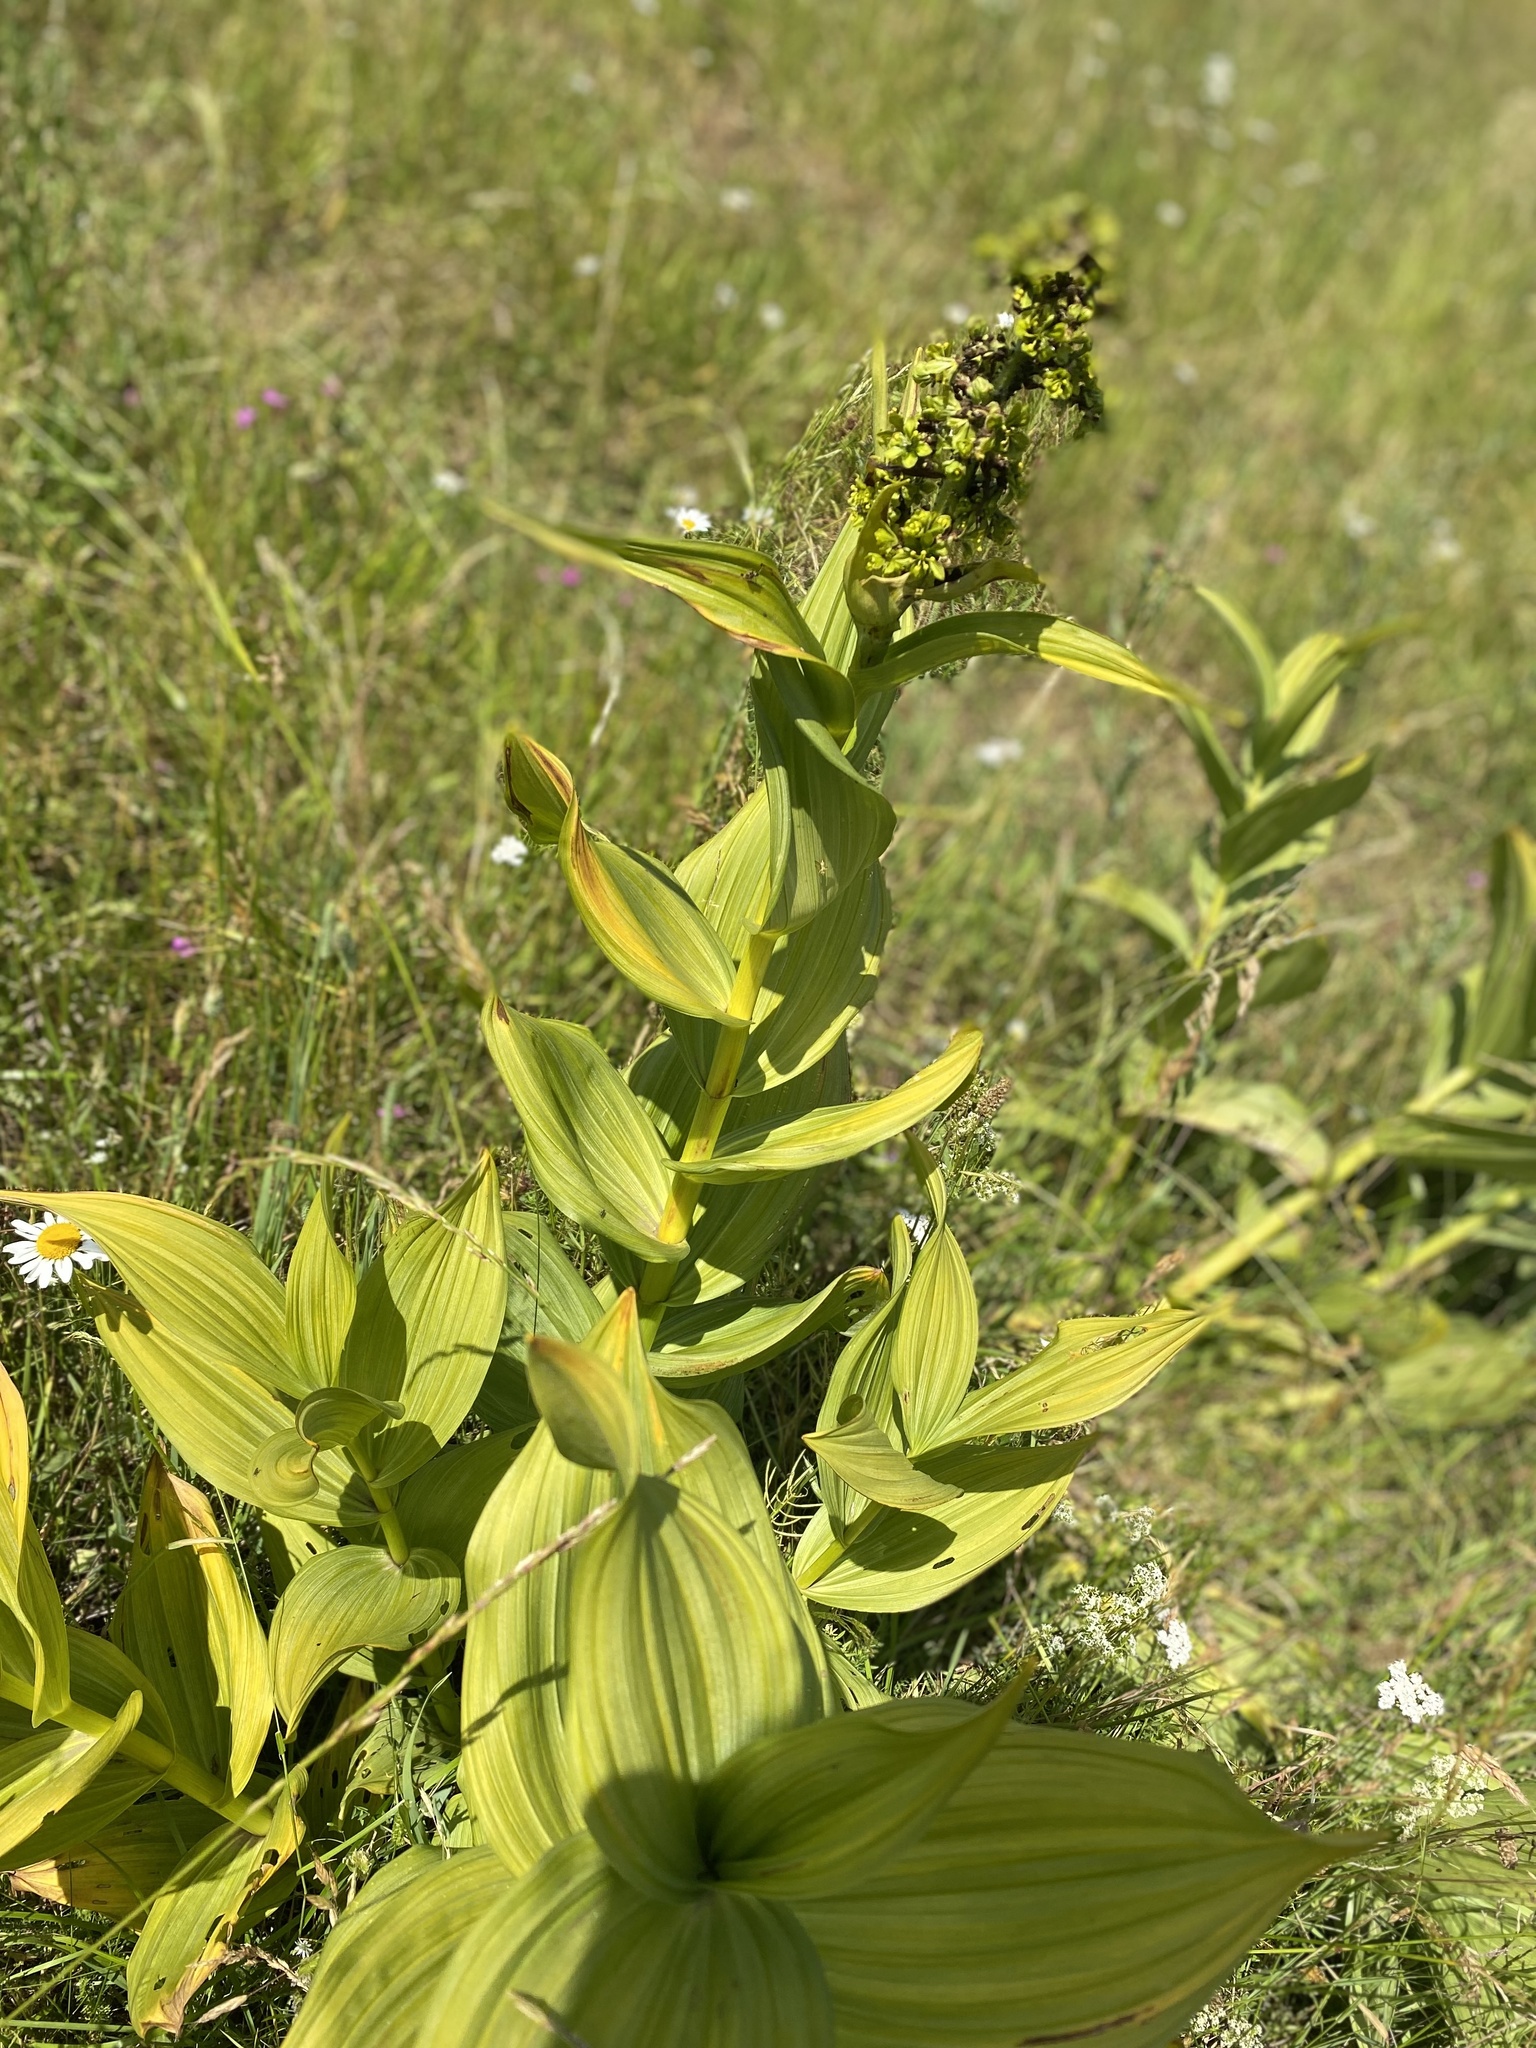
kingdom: Plantae
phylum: Tracheophyta
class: Liliopsida
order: Liliales
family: Melanthiaceae
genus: Veratrum
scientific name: Veratrum lobelianum
